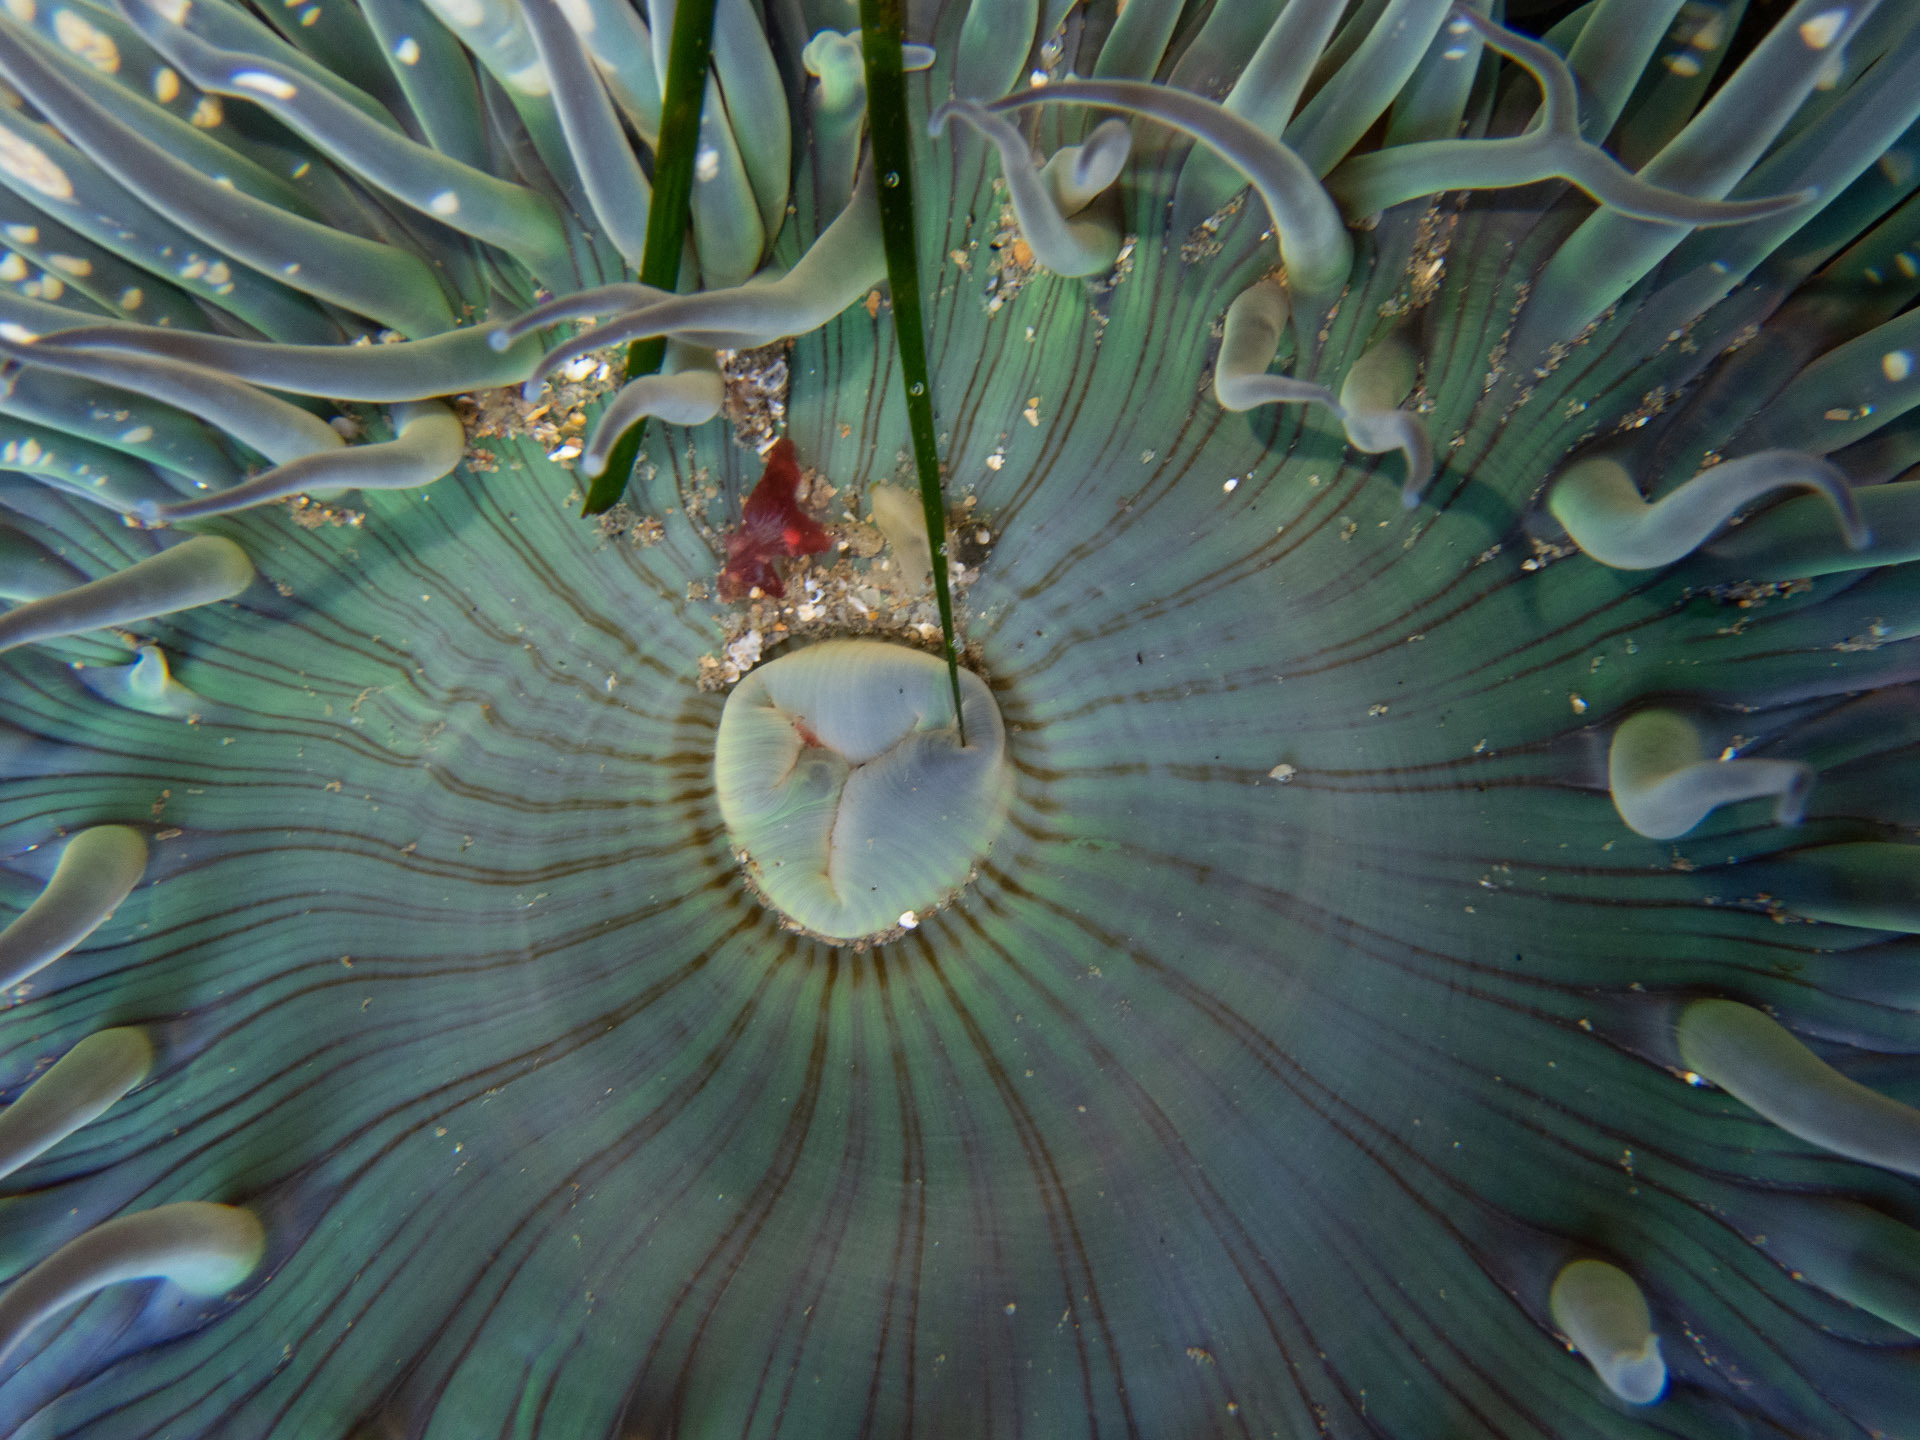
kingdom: Animalia
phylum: Cnidaria
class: Anthozoa
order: Actiniaria
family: Actiniidae
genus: Anthopleura
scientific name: Anthopleura sola
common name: Sun anemone
